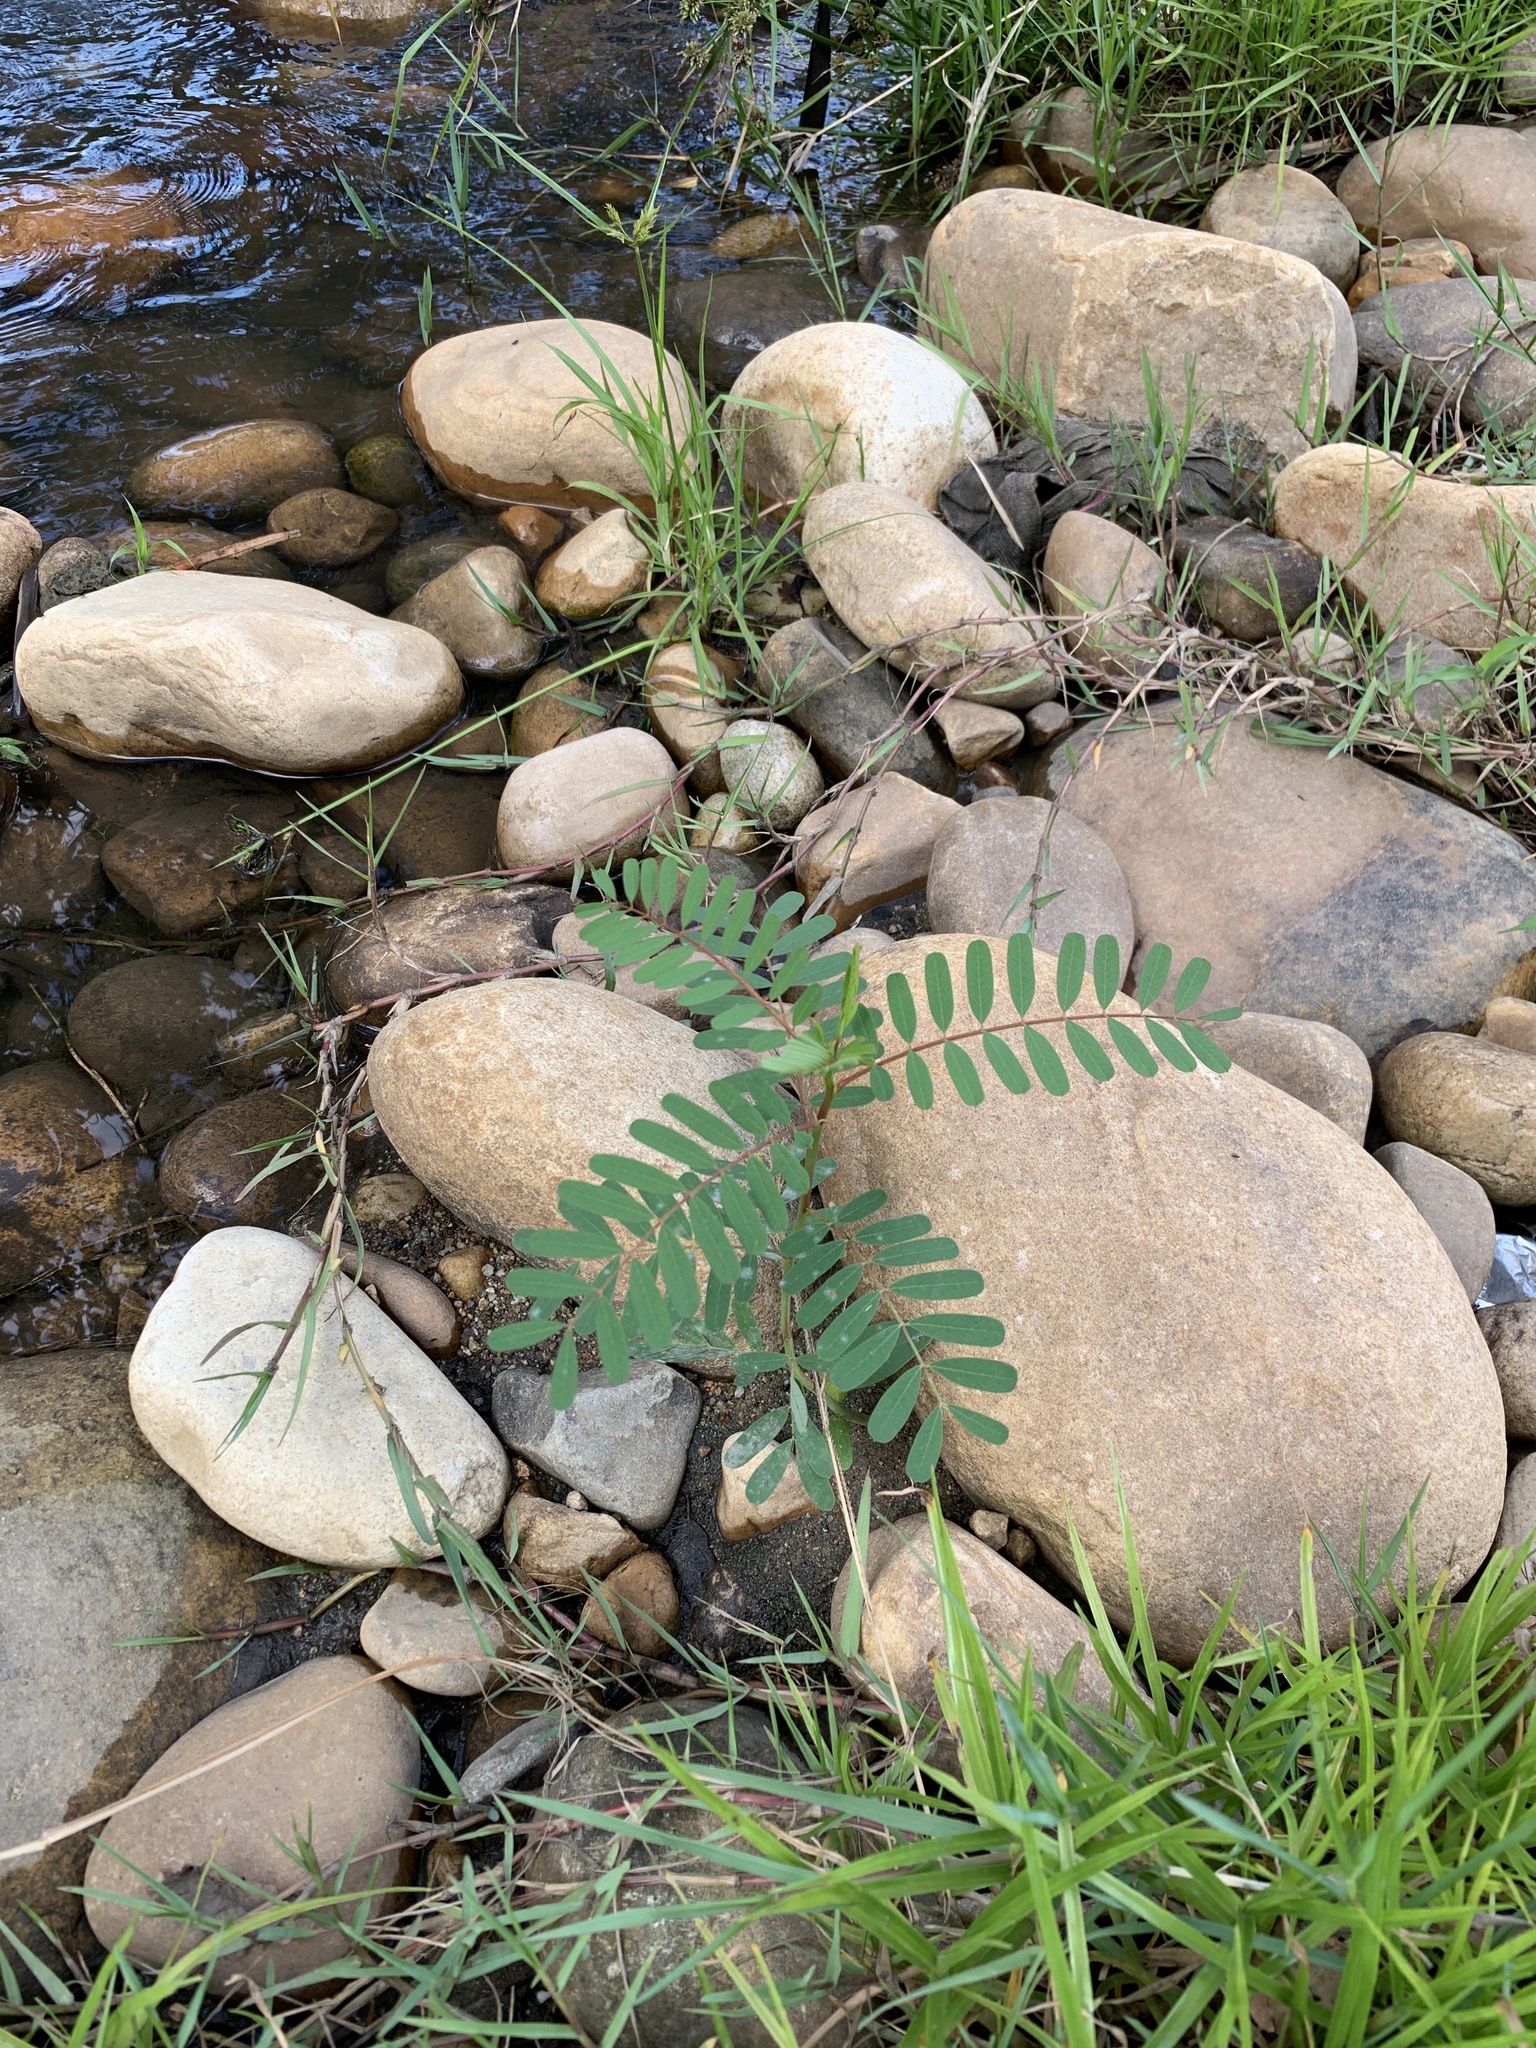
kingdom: Plantae
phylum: Tracheophyta
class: Magnoliopsida
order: Fabales
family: Fabaceae
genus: Sesbania
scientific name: Sesbania punicea
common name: Rattlebox
